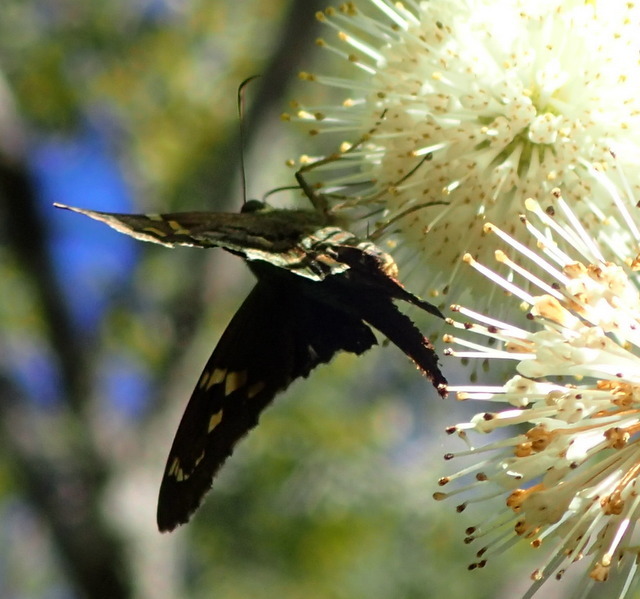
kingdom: Animalia
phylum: Arthropoda
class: Insecta
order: Lepidoptera
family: Hesperiidae
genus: Urbanus
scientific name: Urbanus proteus
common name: Long-tailed skipper
